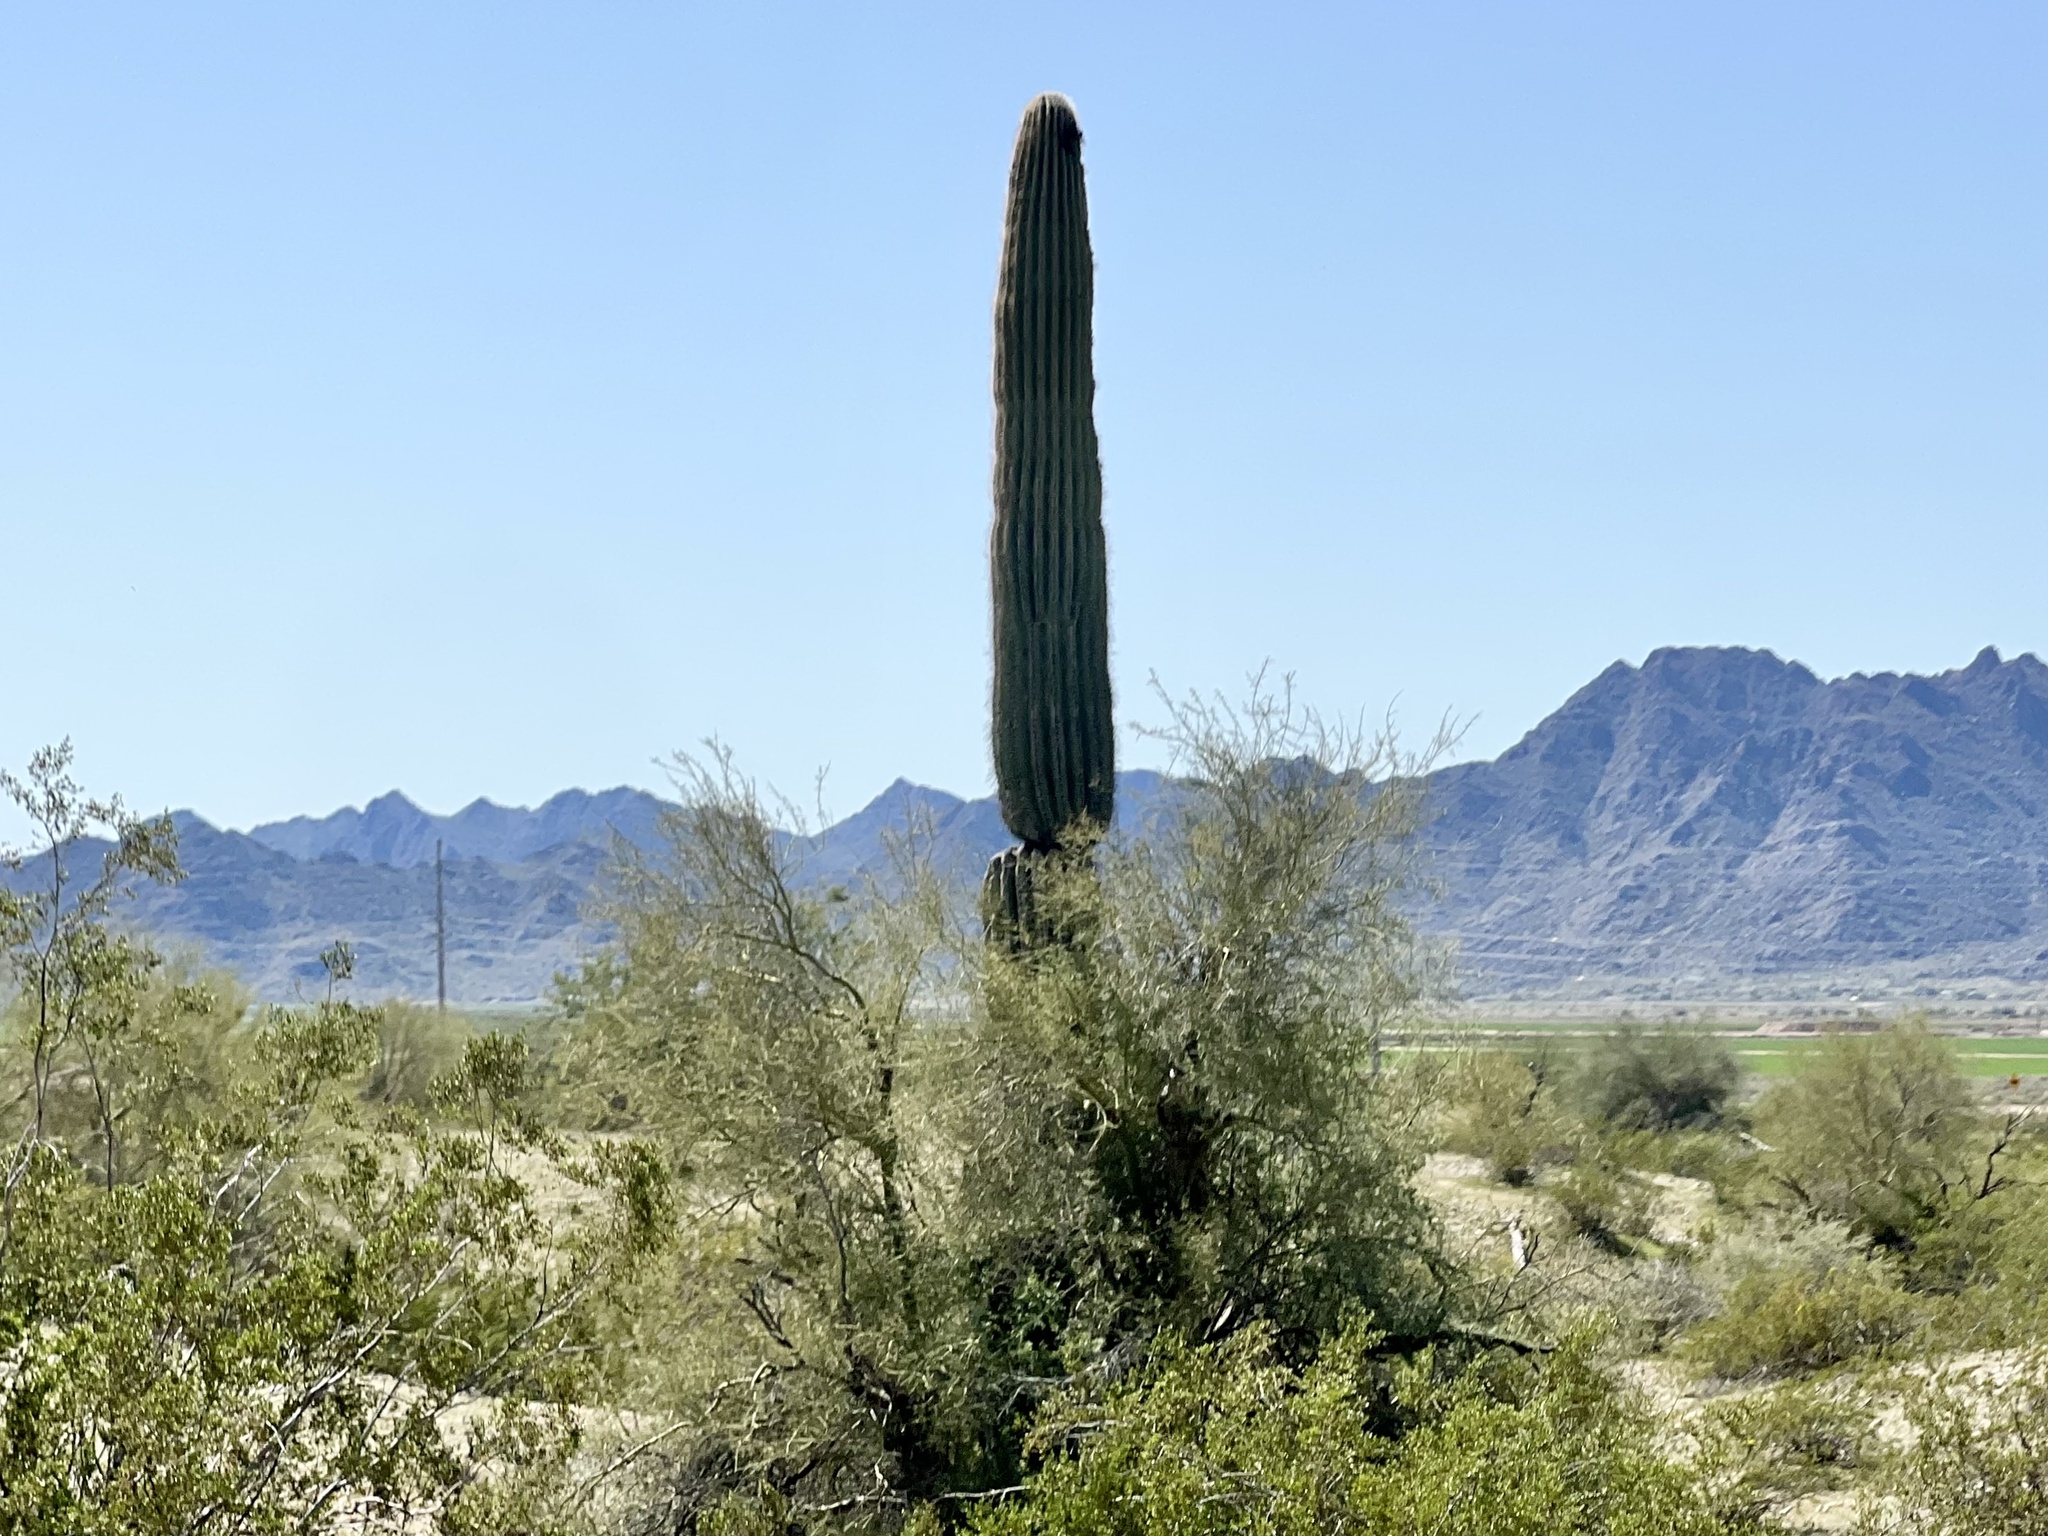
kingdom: Plantae
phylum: Tracheophyta
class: Magnoliopsida
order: Caryophyllales
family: Cactaceae
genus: Carnegiea
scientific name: Carnegiea gigantea
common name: Saguaro
